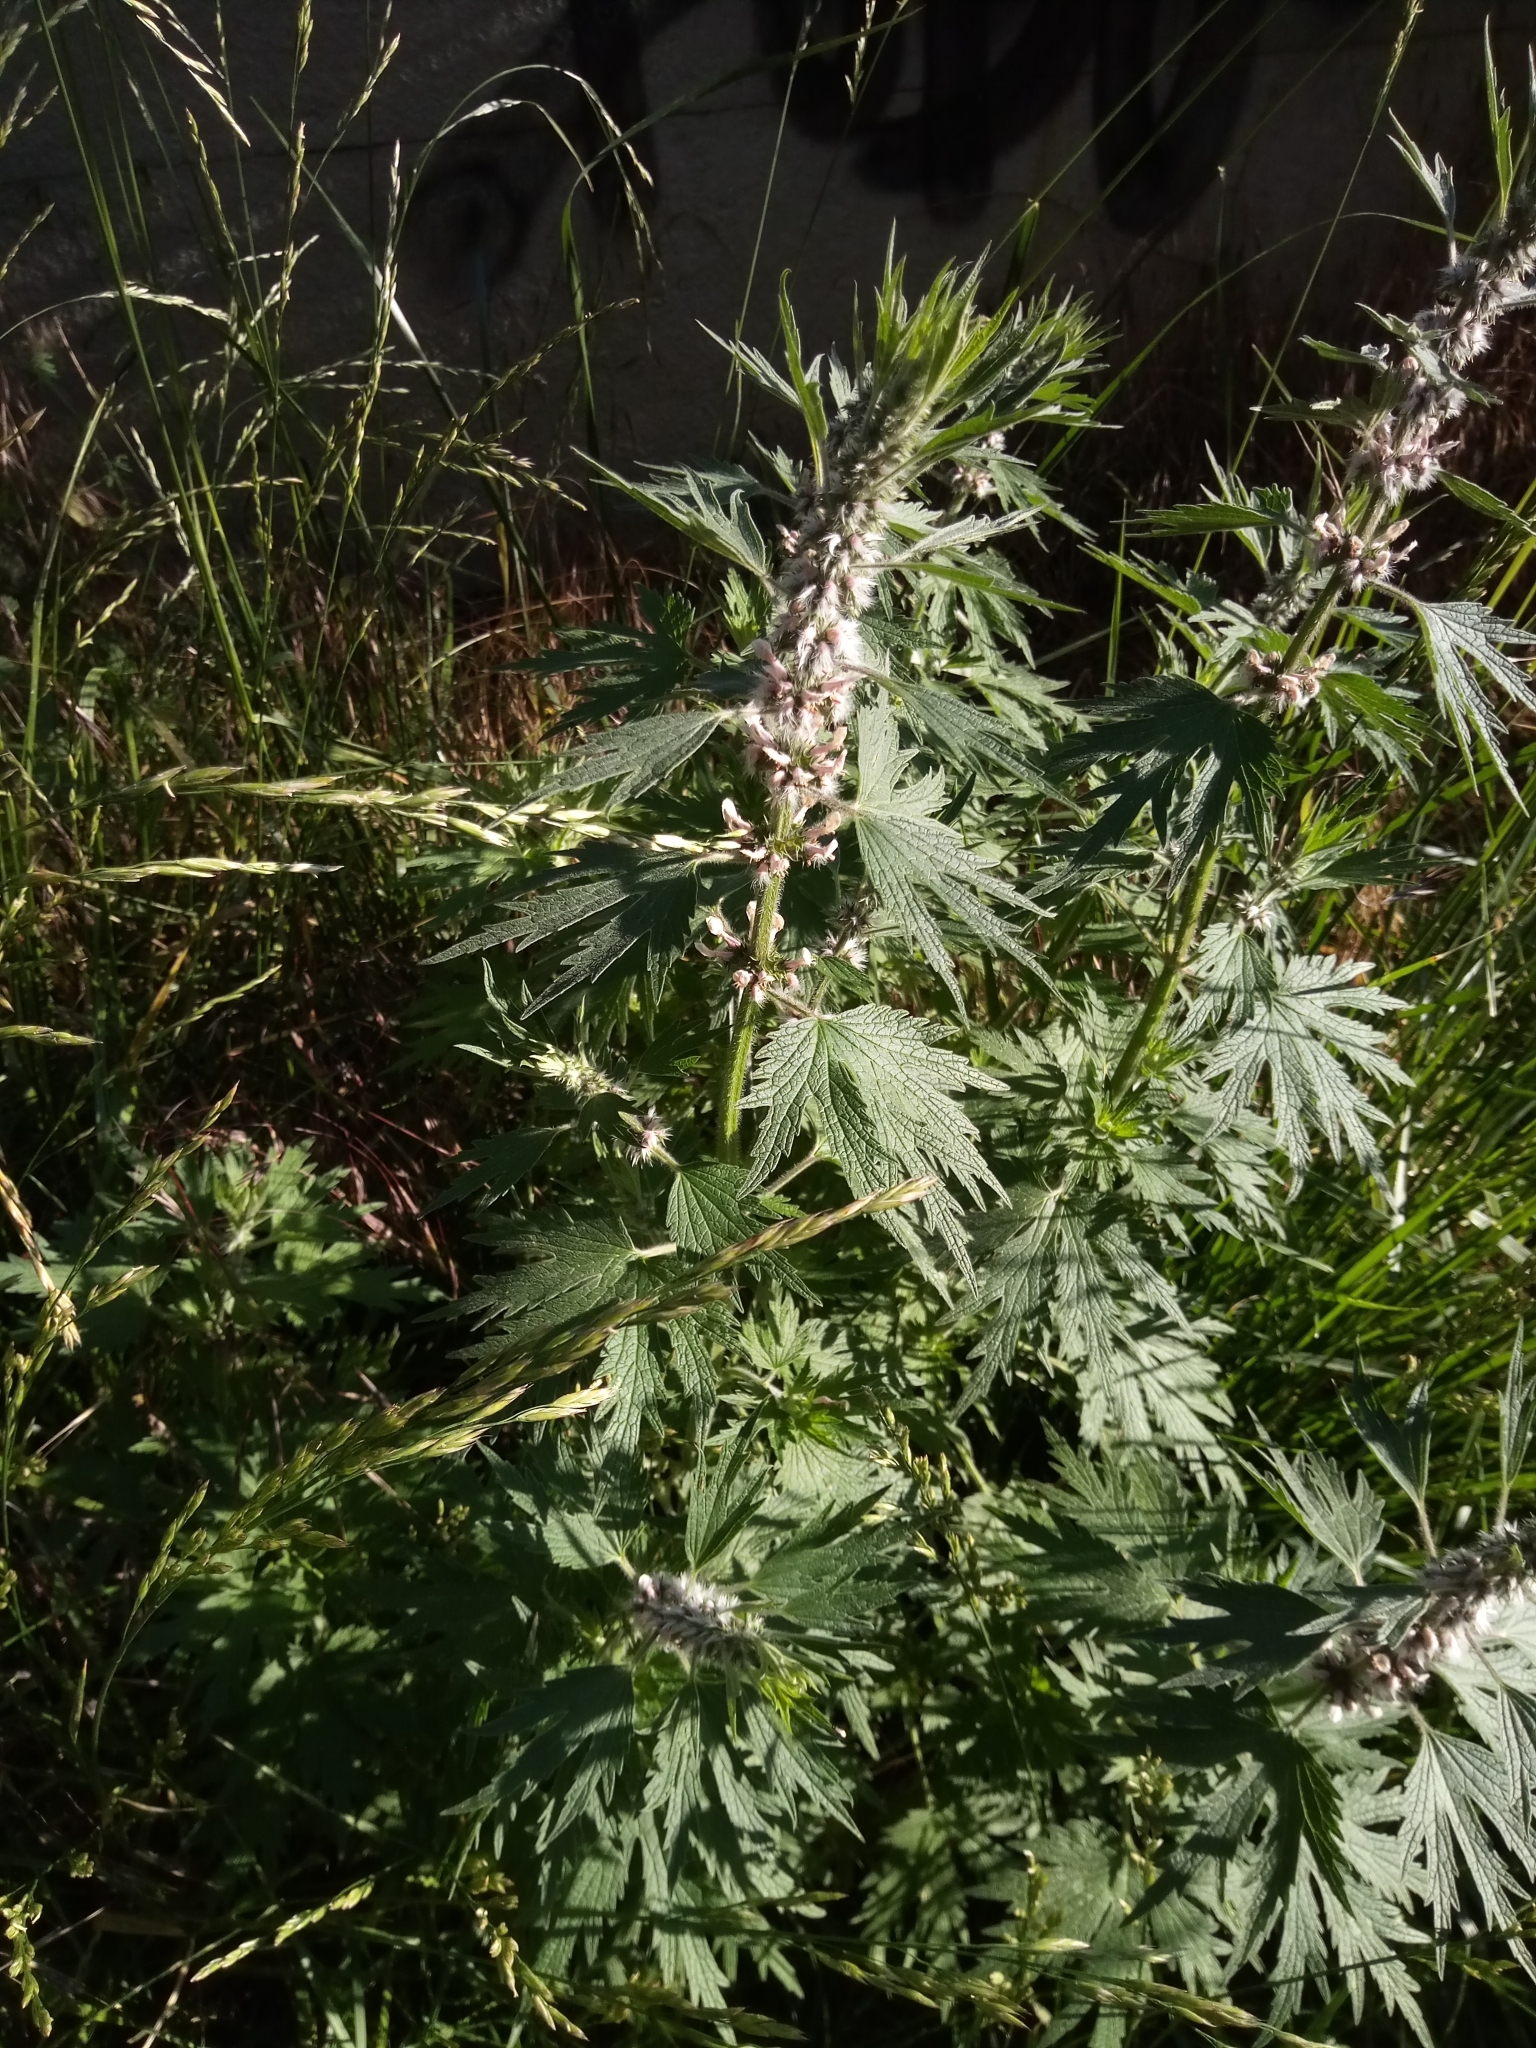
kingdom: Plantae
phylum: Tracheophyta
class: Magnoliopsida
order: Lamiales
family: Lamiaceae
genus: Leonurus
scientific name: Leonurus cardiaca
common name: Motherwort
